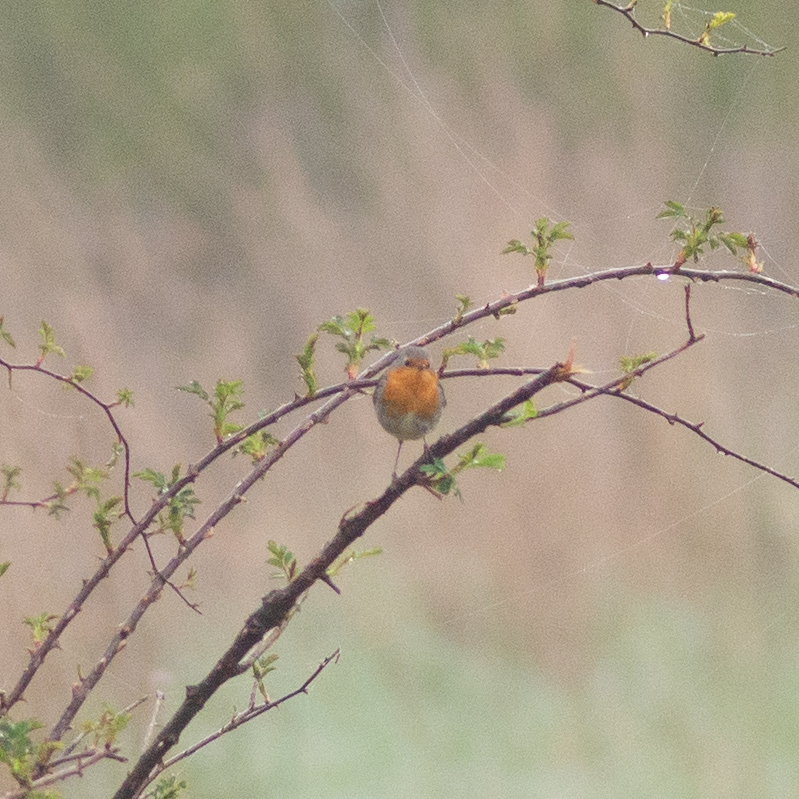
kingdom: Animalia
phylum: Chordata
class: Aves
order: Passeriformes
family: Muscicapidae
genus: Erithacus
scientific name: Erithacus rubecula
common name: European robin
